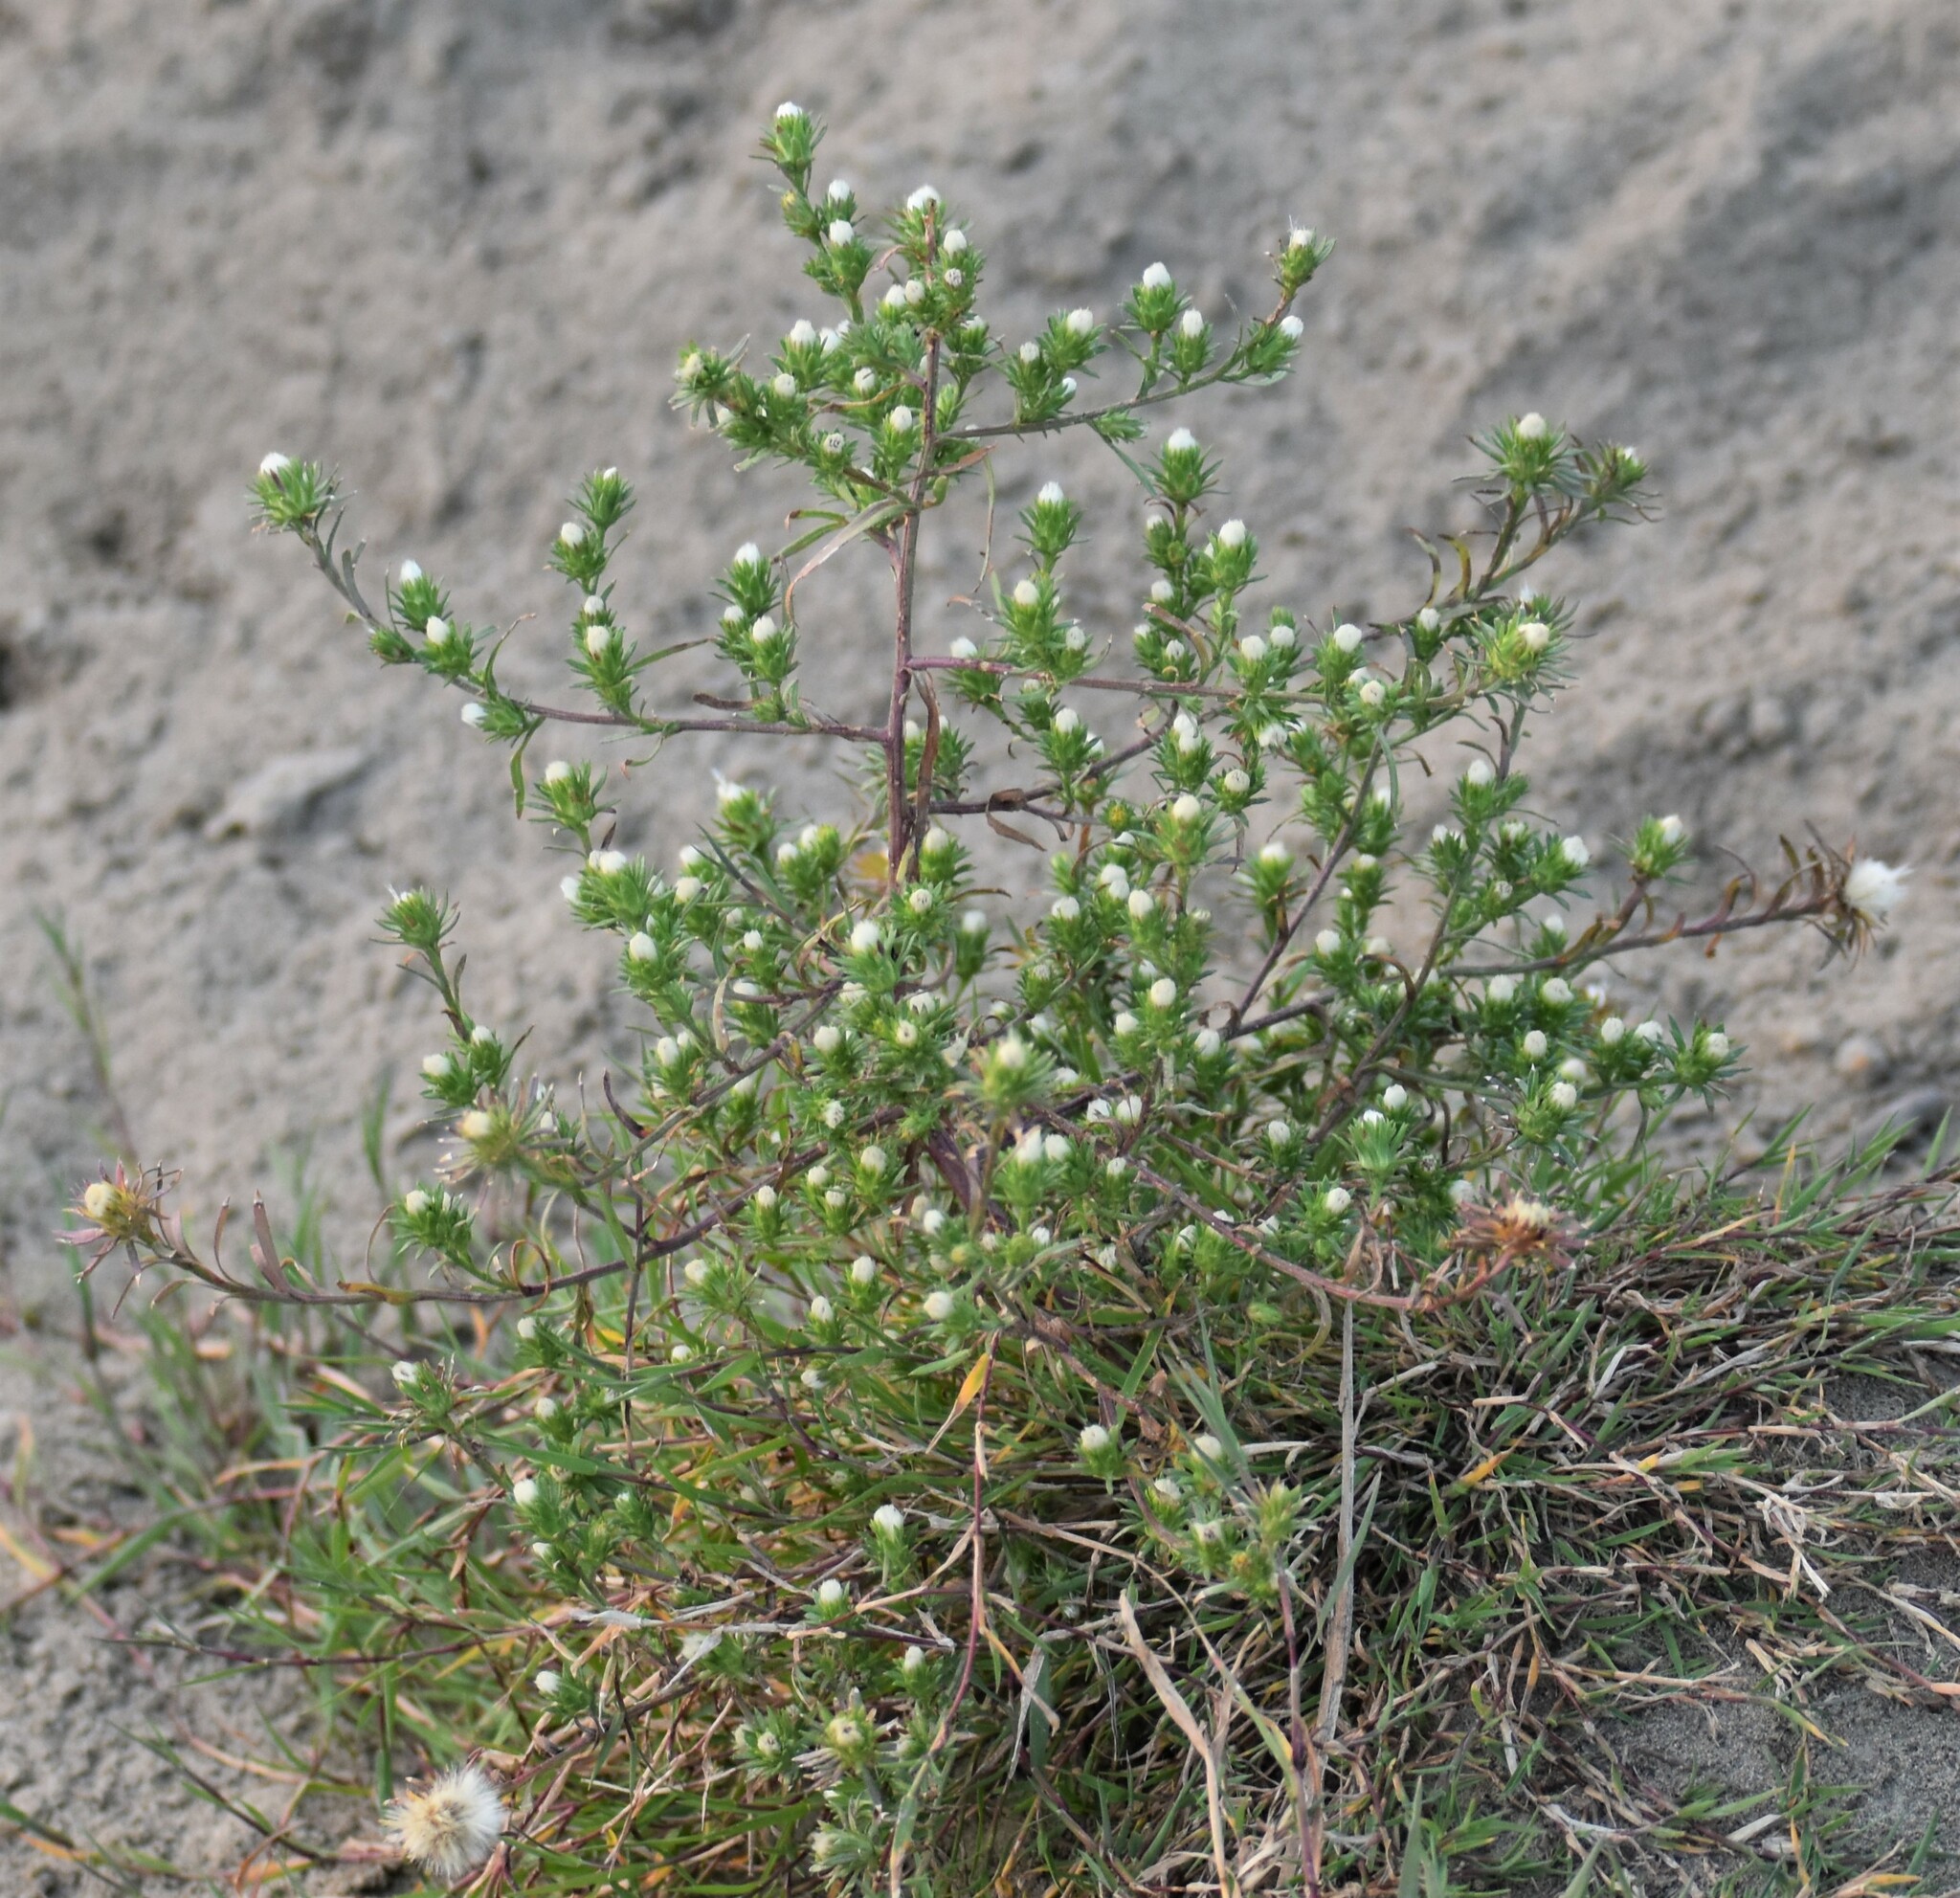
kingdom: Plantae
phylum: Tracheophyta
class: Magnoliopsida
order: Asterales
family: Asteraceae
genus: Symphyotrichum
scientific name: Symphyotrichum ciliatum
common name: Rayless annual aster
